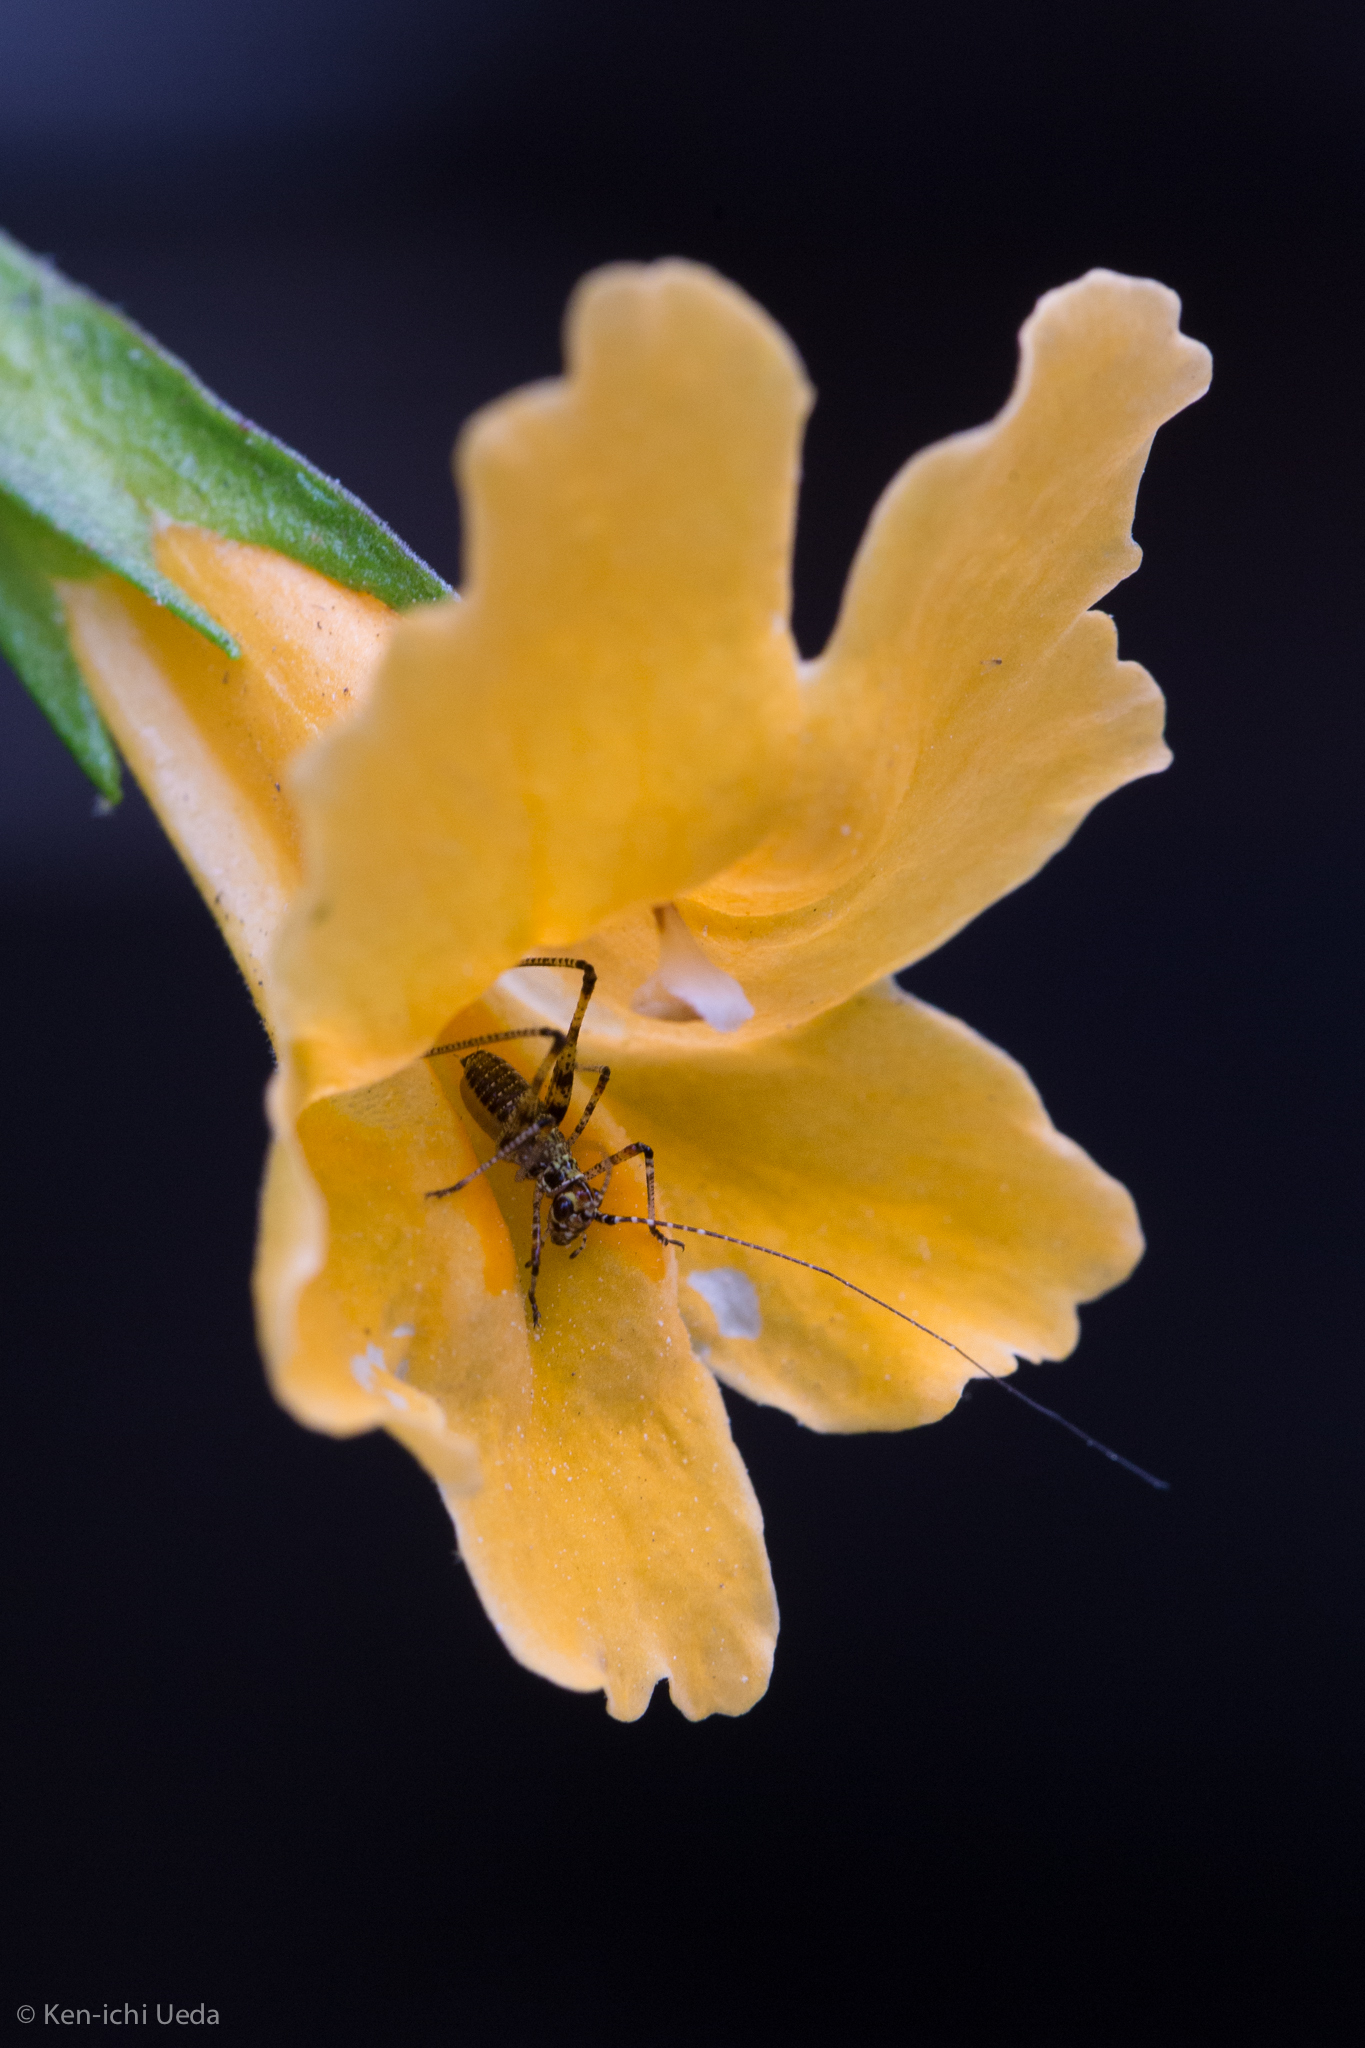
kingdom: Animalia
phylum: Arthropoda
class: Insecta
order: Orthoptera
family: Tettigoniidae
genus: Phaneroptera
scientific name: Phaneroptera nana
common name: Southern sickle bush-cricket
